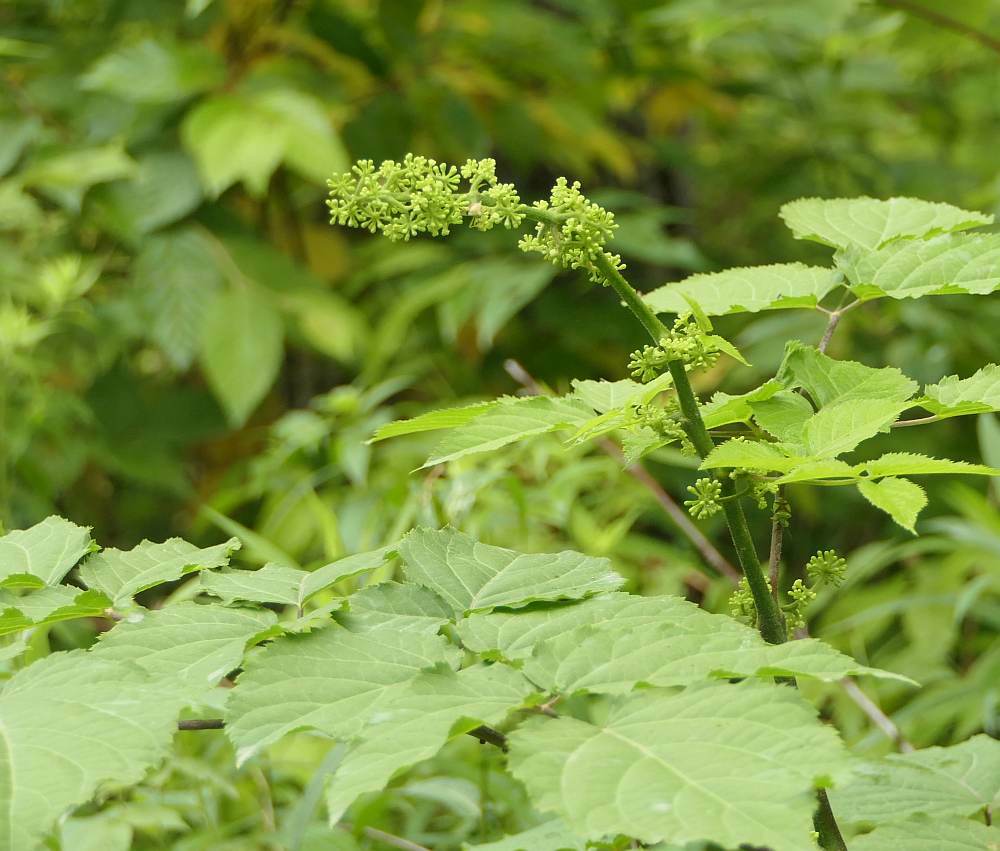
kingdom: Plantae
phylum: Tracheophyta
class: Magnoliopsida
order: Apiales
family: Araliaceae
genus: Aralia
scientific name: Aralia racemosa
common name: American-spikenard
